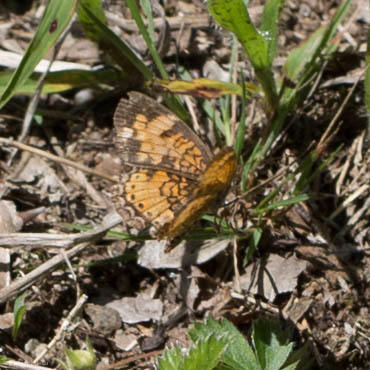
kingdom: Animalia
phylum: Arthropoda
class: Insecta
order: Lepidoptera
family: Nymphalidae
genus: Phyciodes
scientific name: Phyciodes tharos
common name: Pearl crescent
